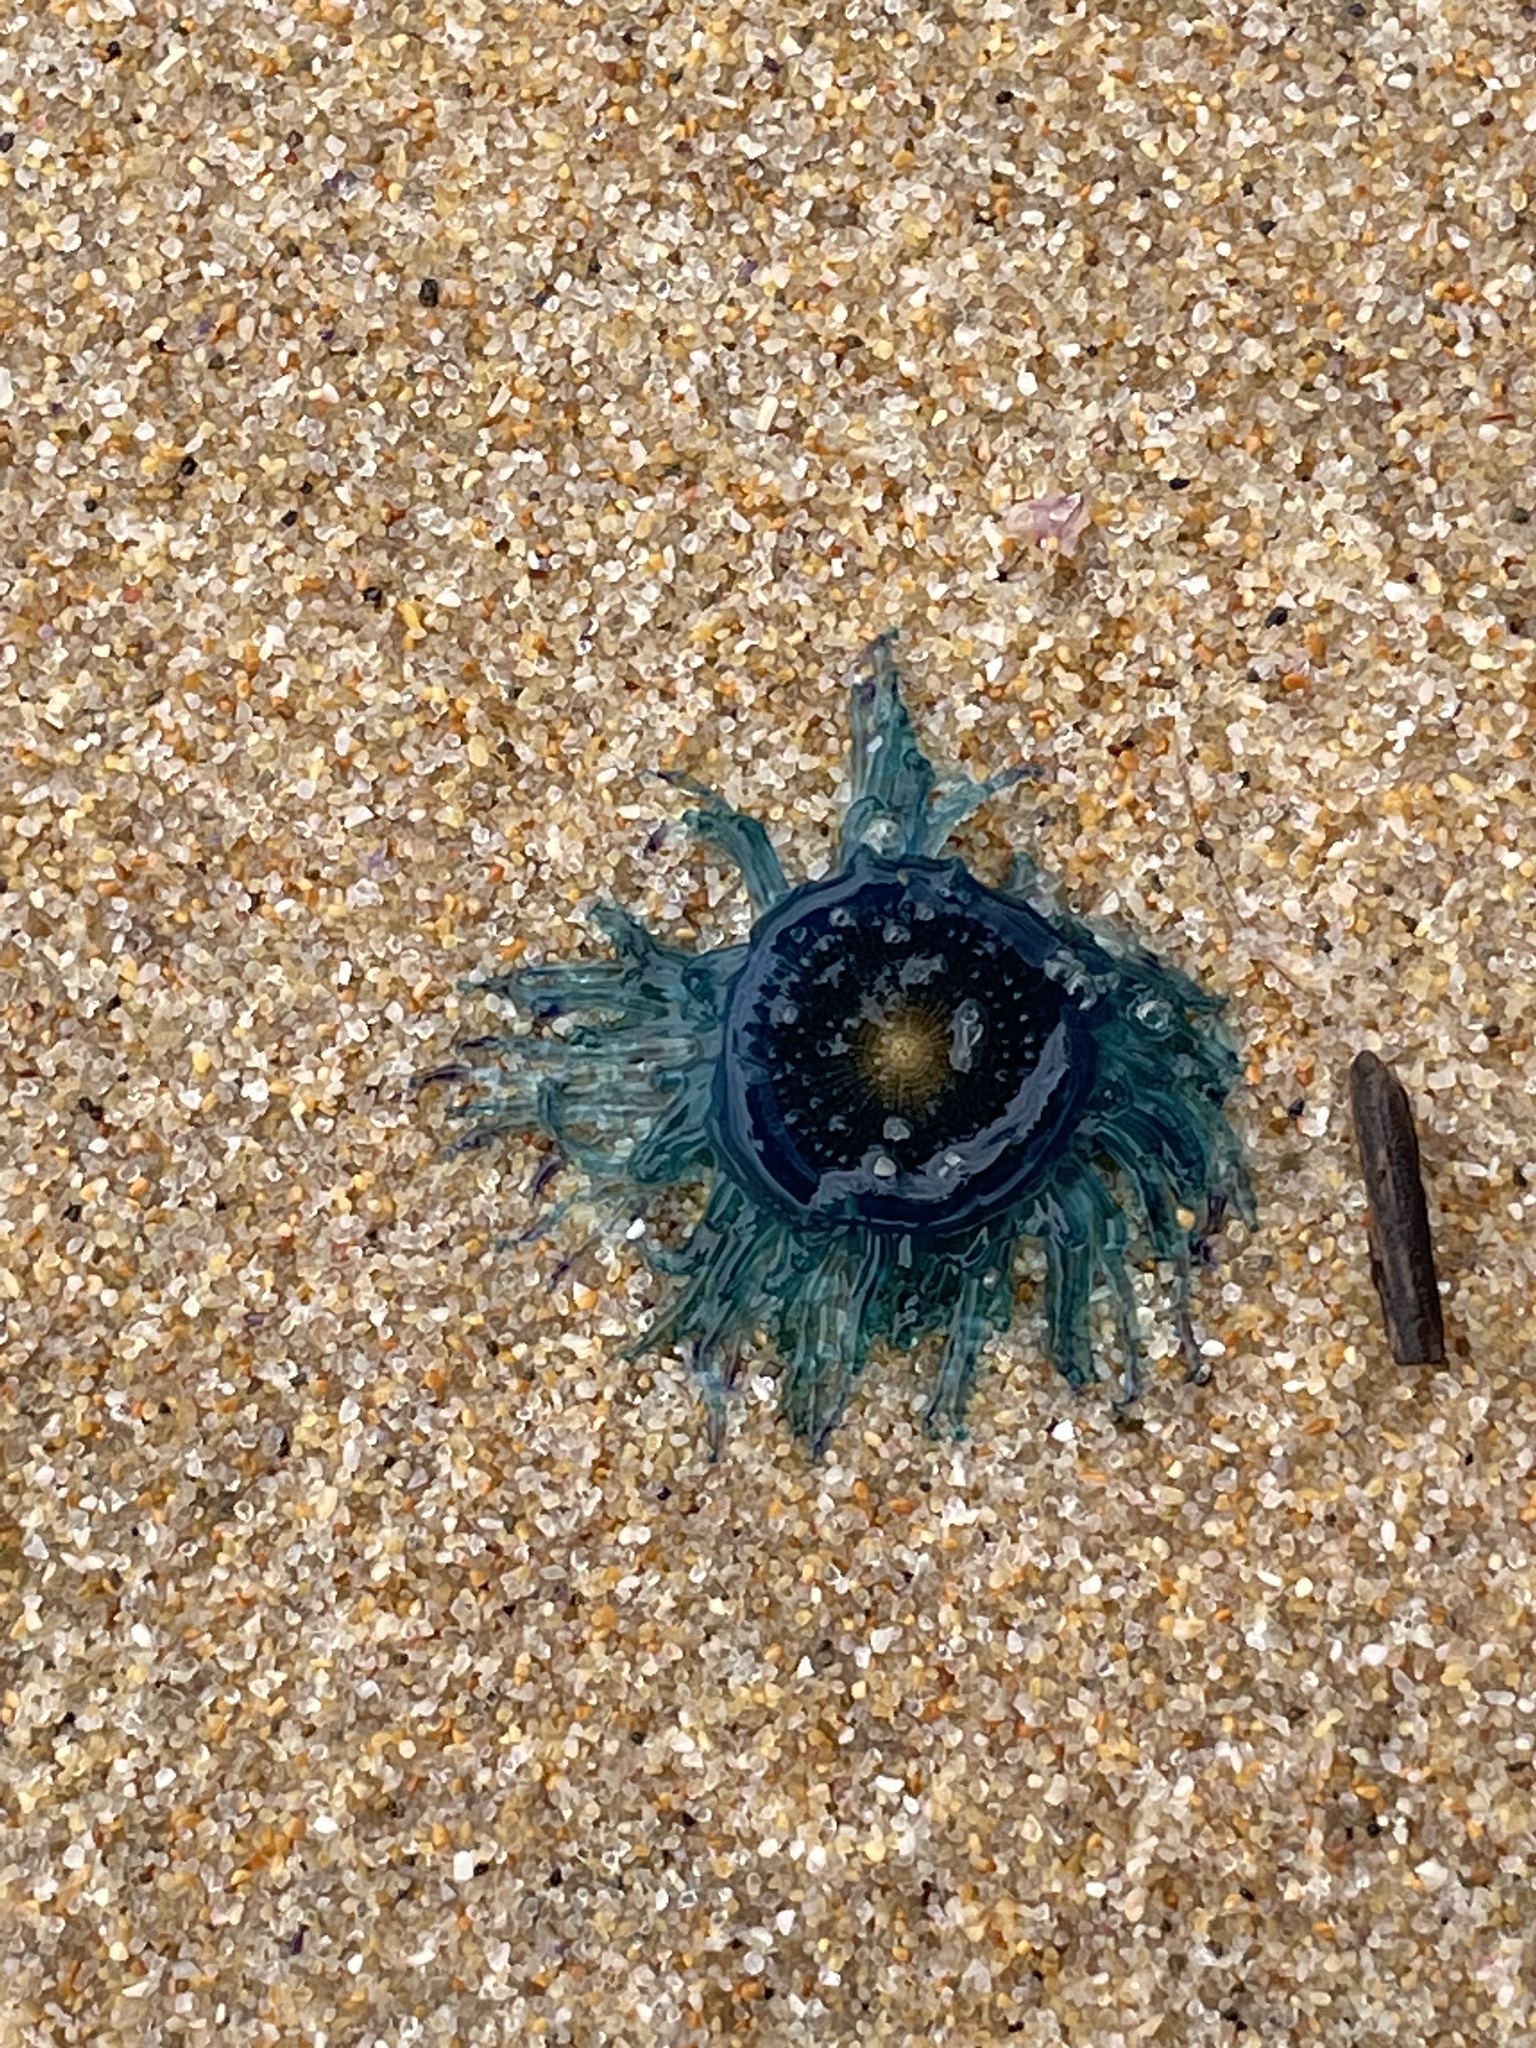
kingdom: Animalia
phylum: Cnidaria
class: Hydrozoa
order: Anthoathecata
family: Porpitidae
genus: Porpita
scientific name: Porpita porpita
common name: Blue button
